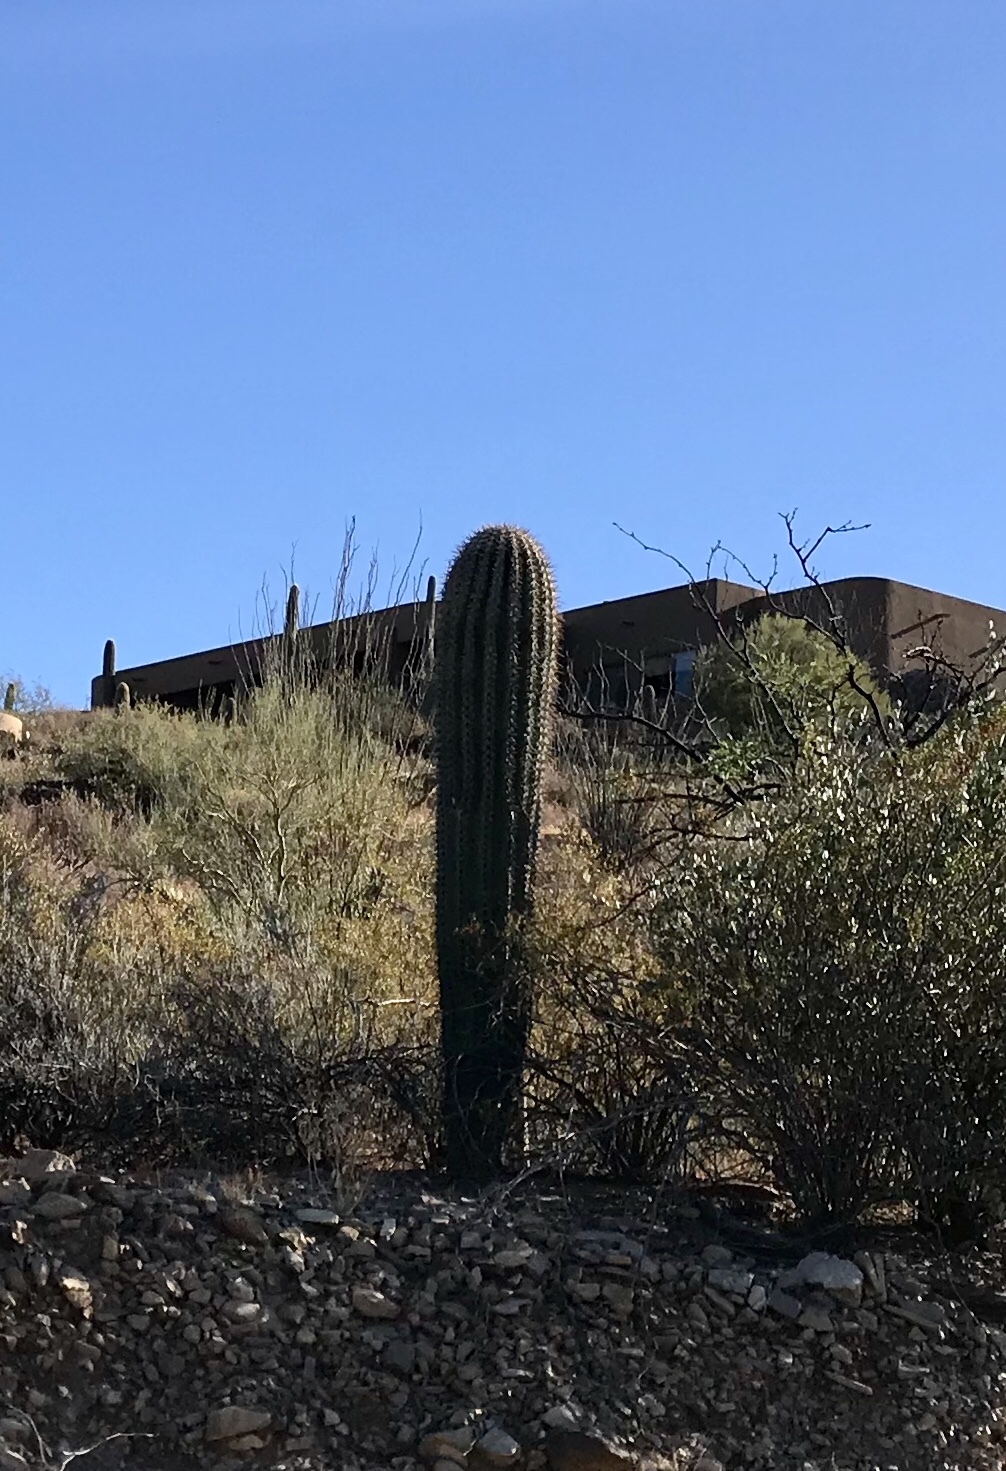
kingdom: Plantae
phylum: Tracheophyta
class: Magnoliopsida
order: Caryophyllales
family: Cactaceae
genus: Carnegiea
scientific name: Carnegiea gigantea
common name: Saguaro
